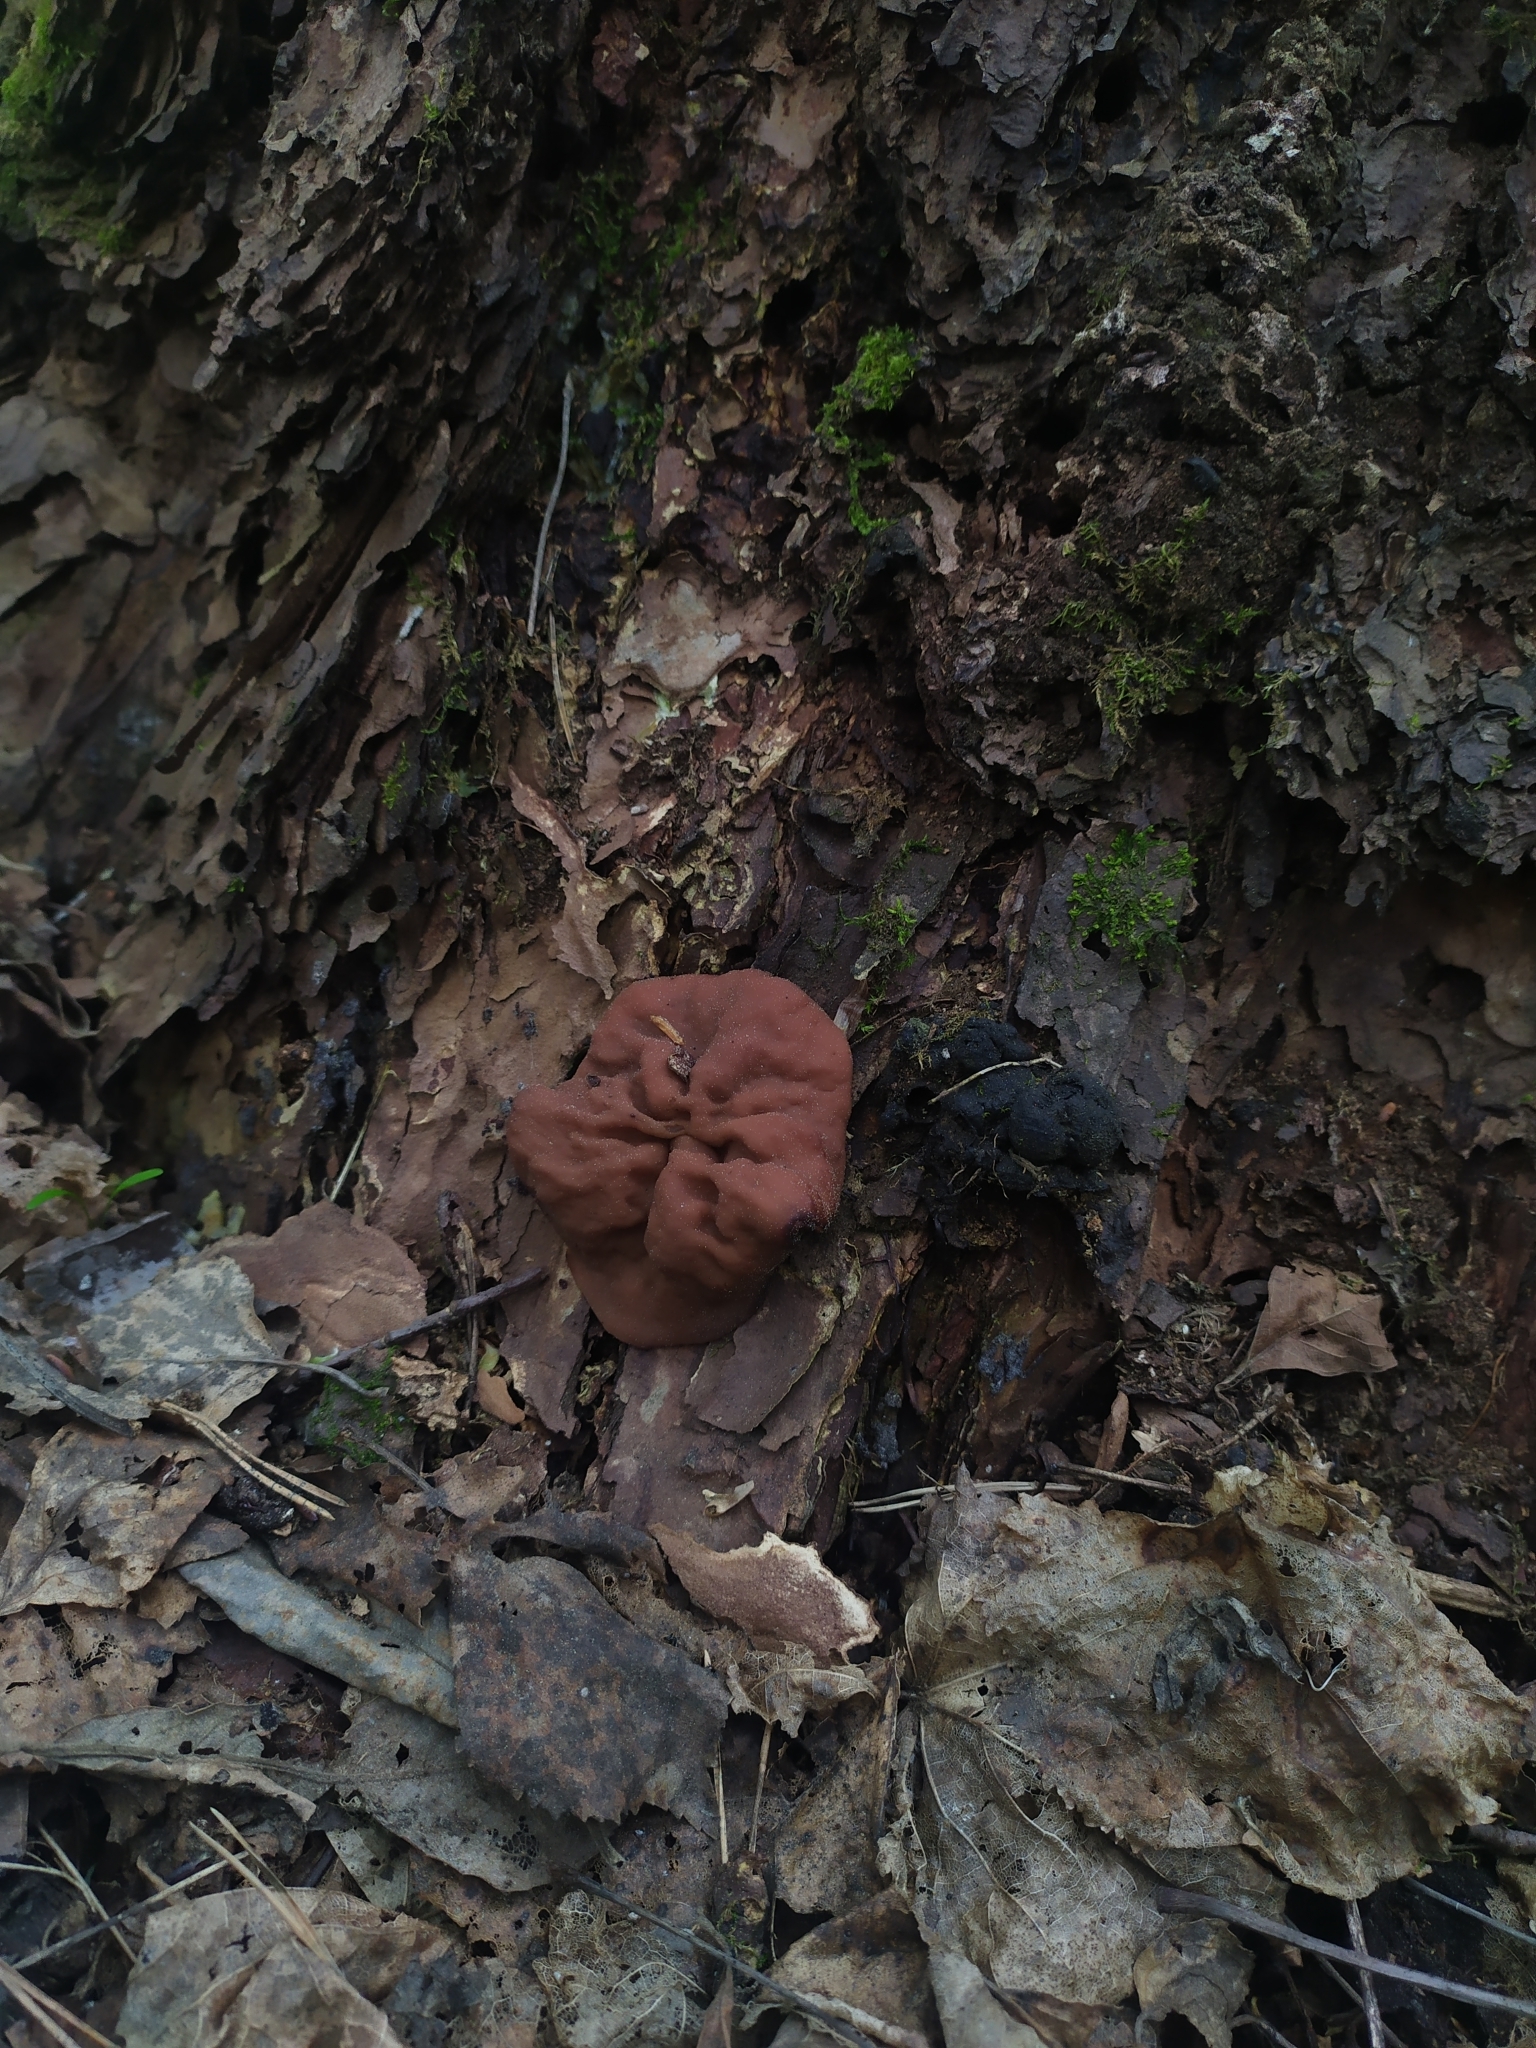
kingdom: Fungi
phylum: Ascomycota
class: Pezizomycetes
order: Pezizales
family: Discinaceae
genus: Discina
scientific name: Discina ancilis
